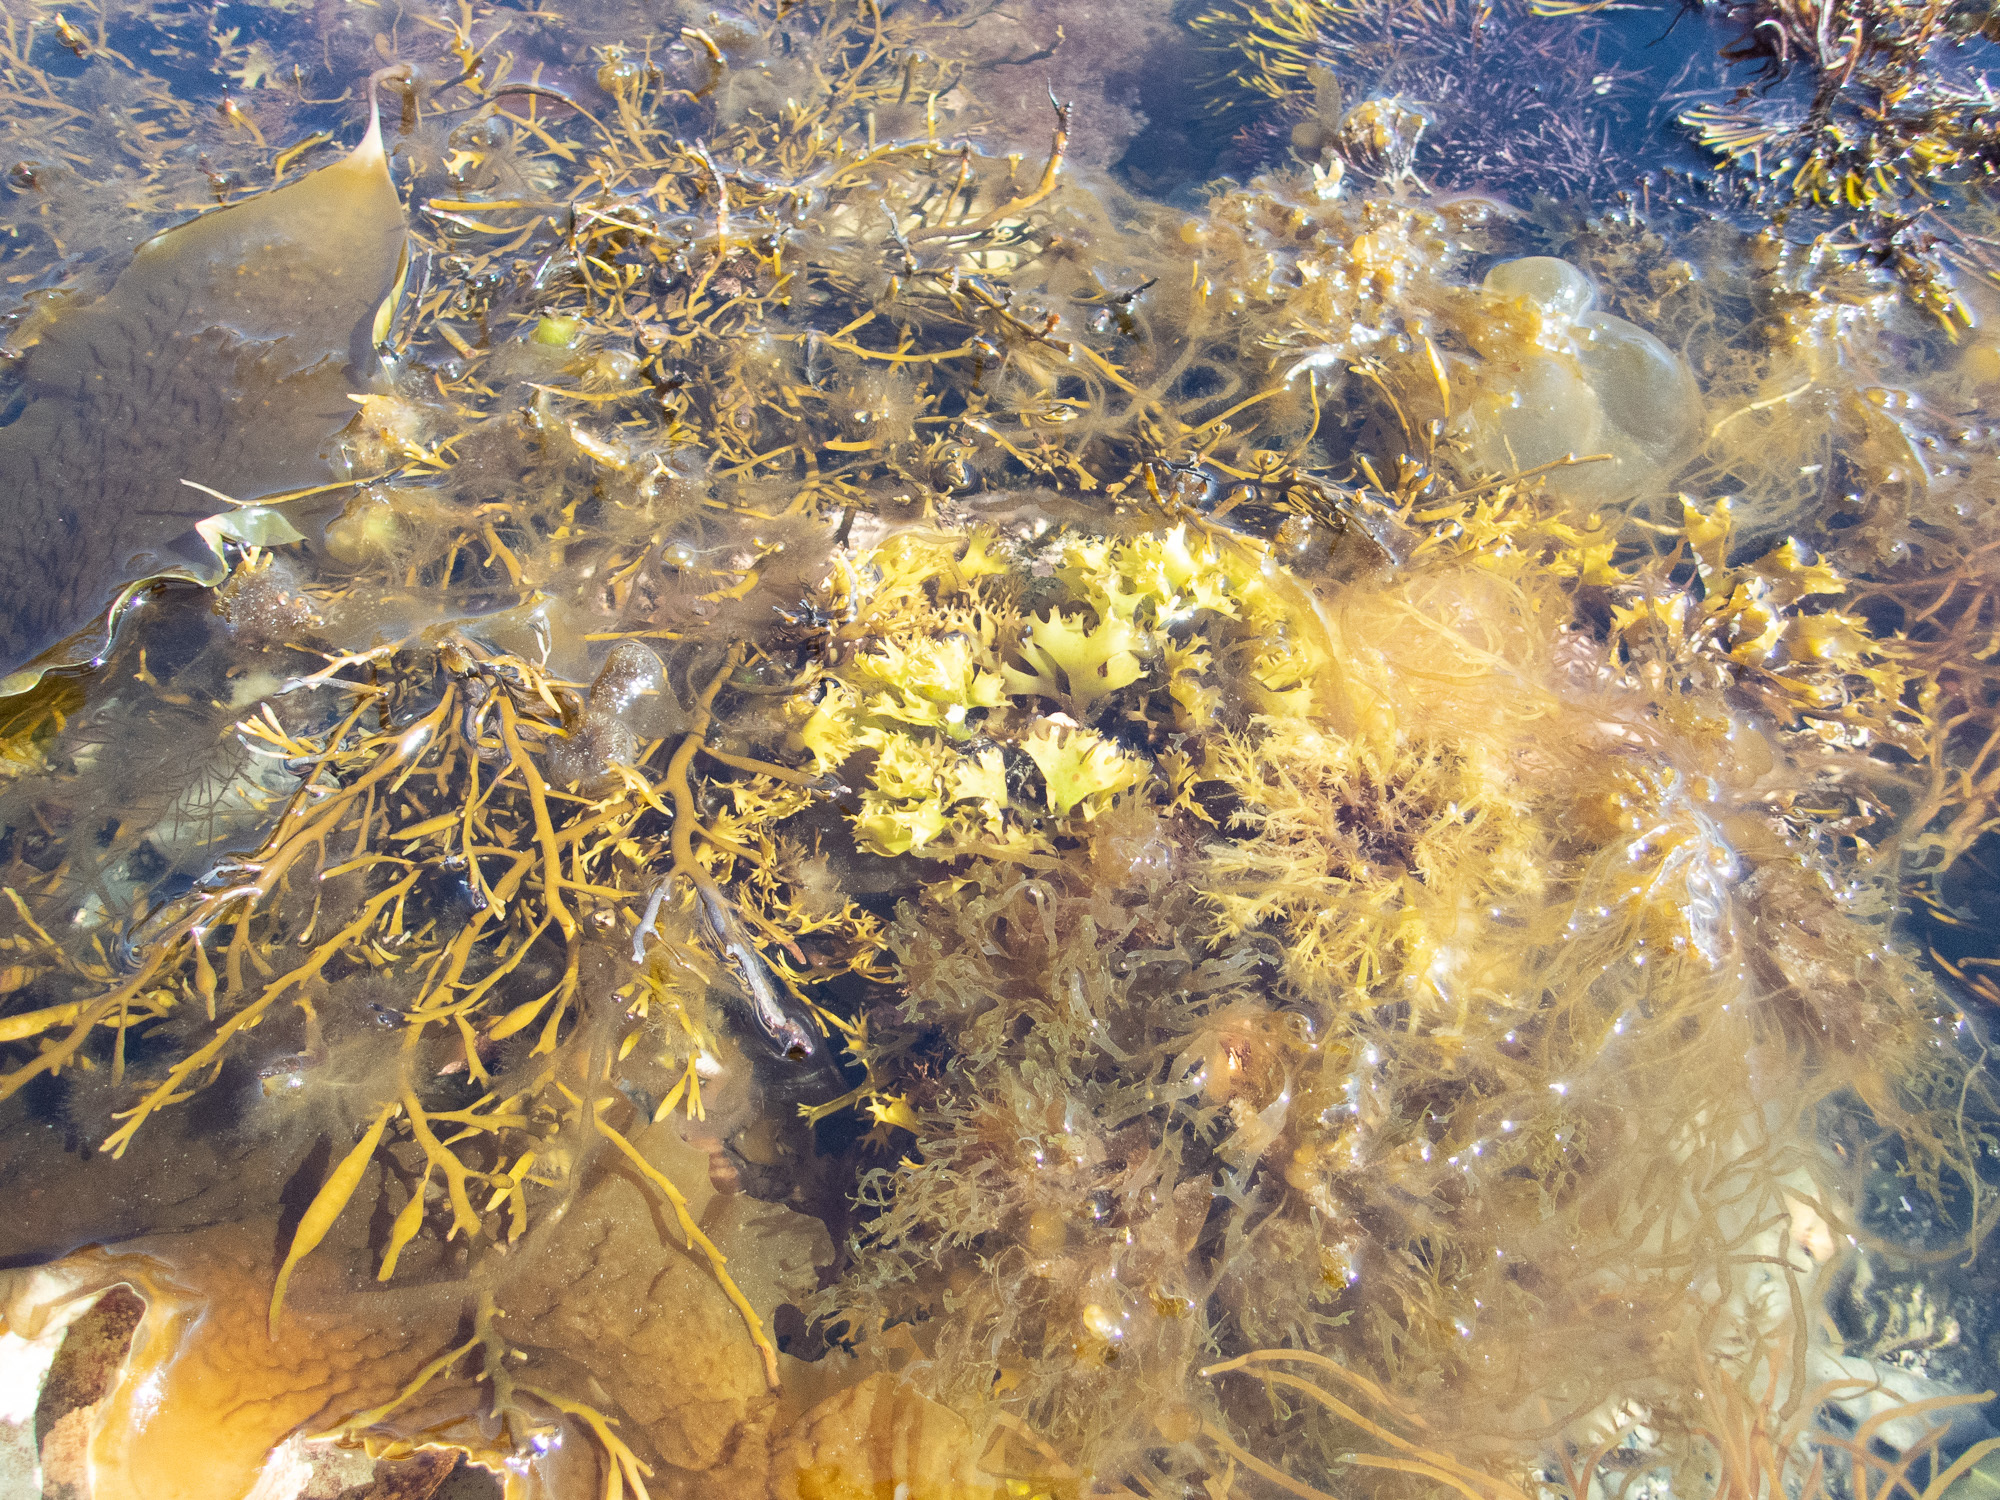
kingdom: Chromista
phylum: Ochrophyta
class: Phaeophyceae
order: Fucales
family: Sargassaceae
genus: Halidrys
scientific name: Halidrys siliquosa
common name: Sea oak
